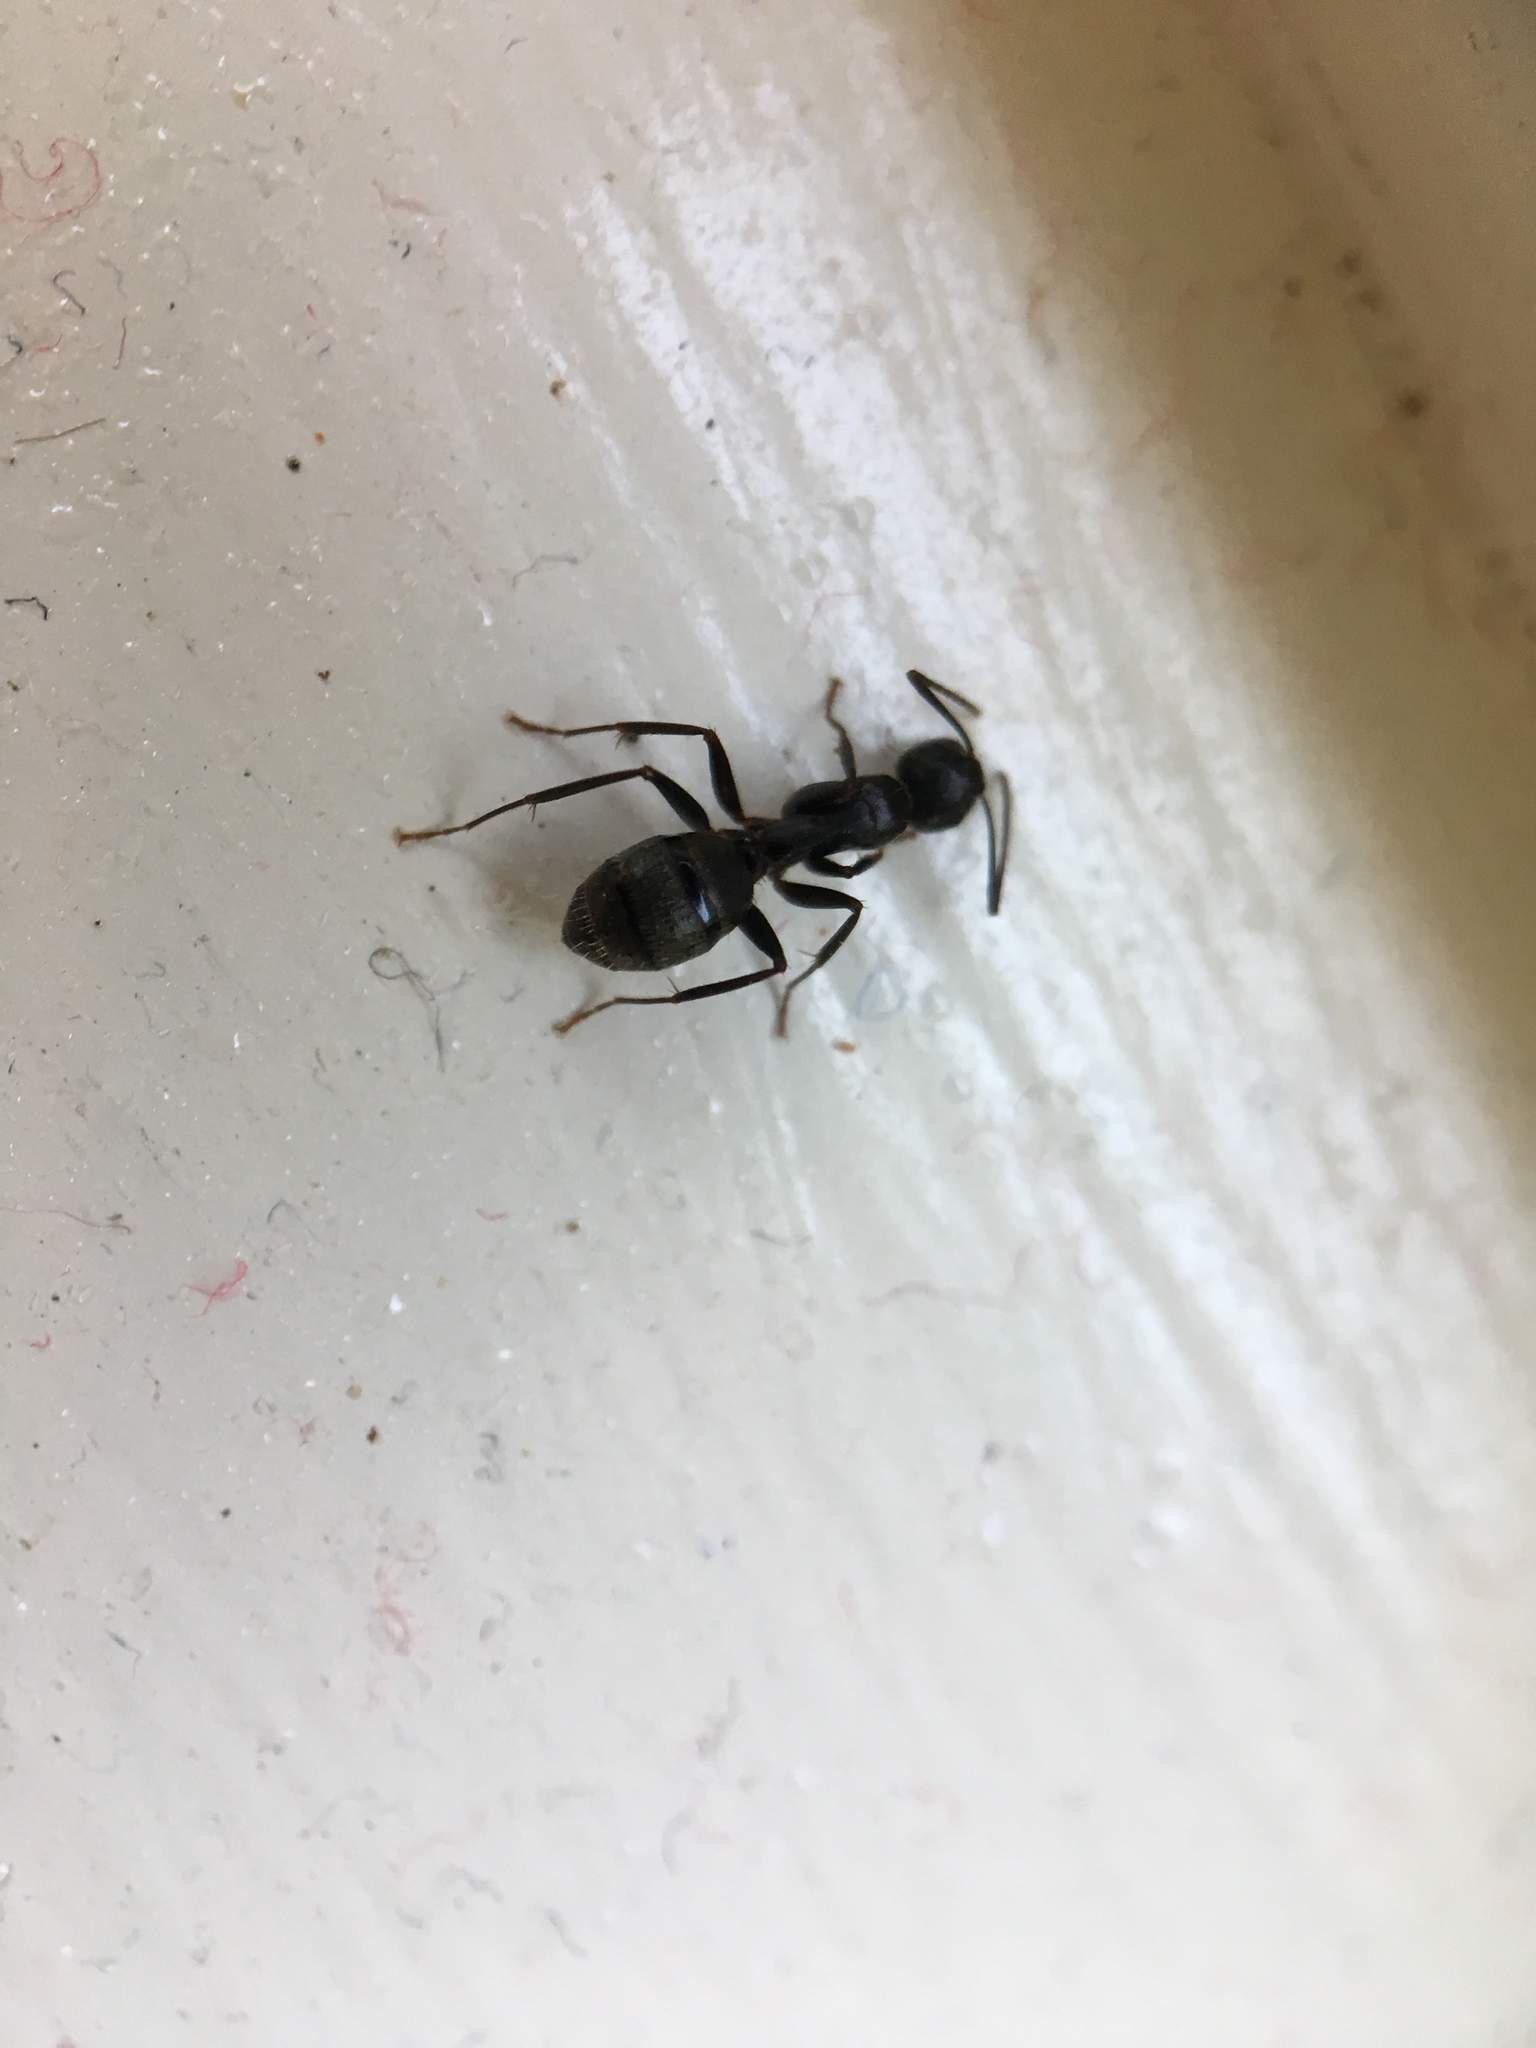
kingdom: Animalia
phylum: Arthropoda
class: Insecta
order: Hymenoptera
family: Formicidae
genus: Camponotus
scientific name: Camponotus pennsylvanicus
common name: Black carpenter ant
